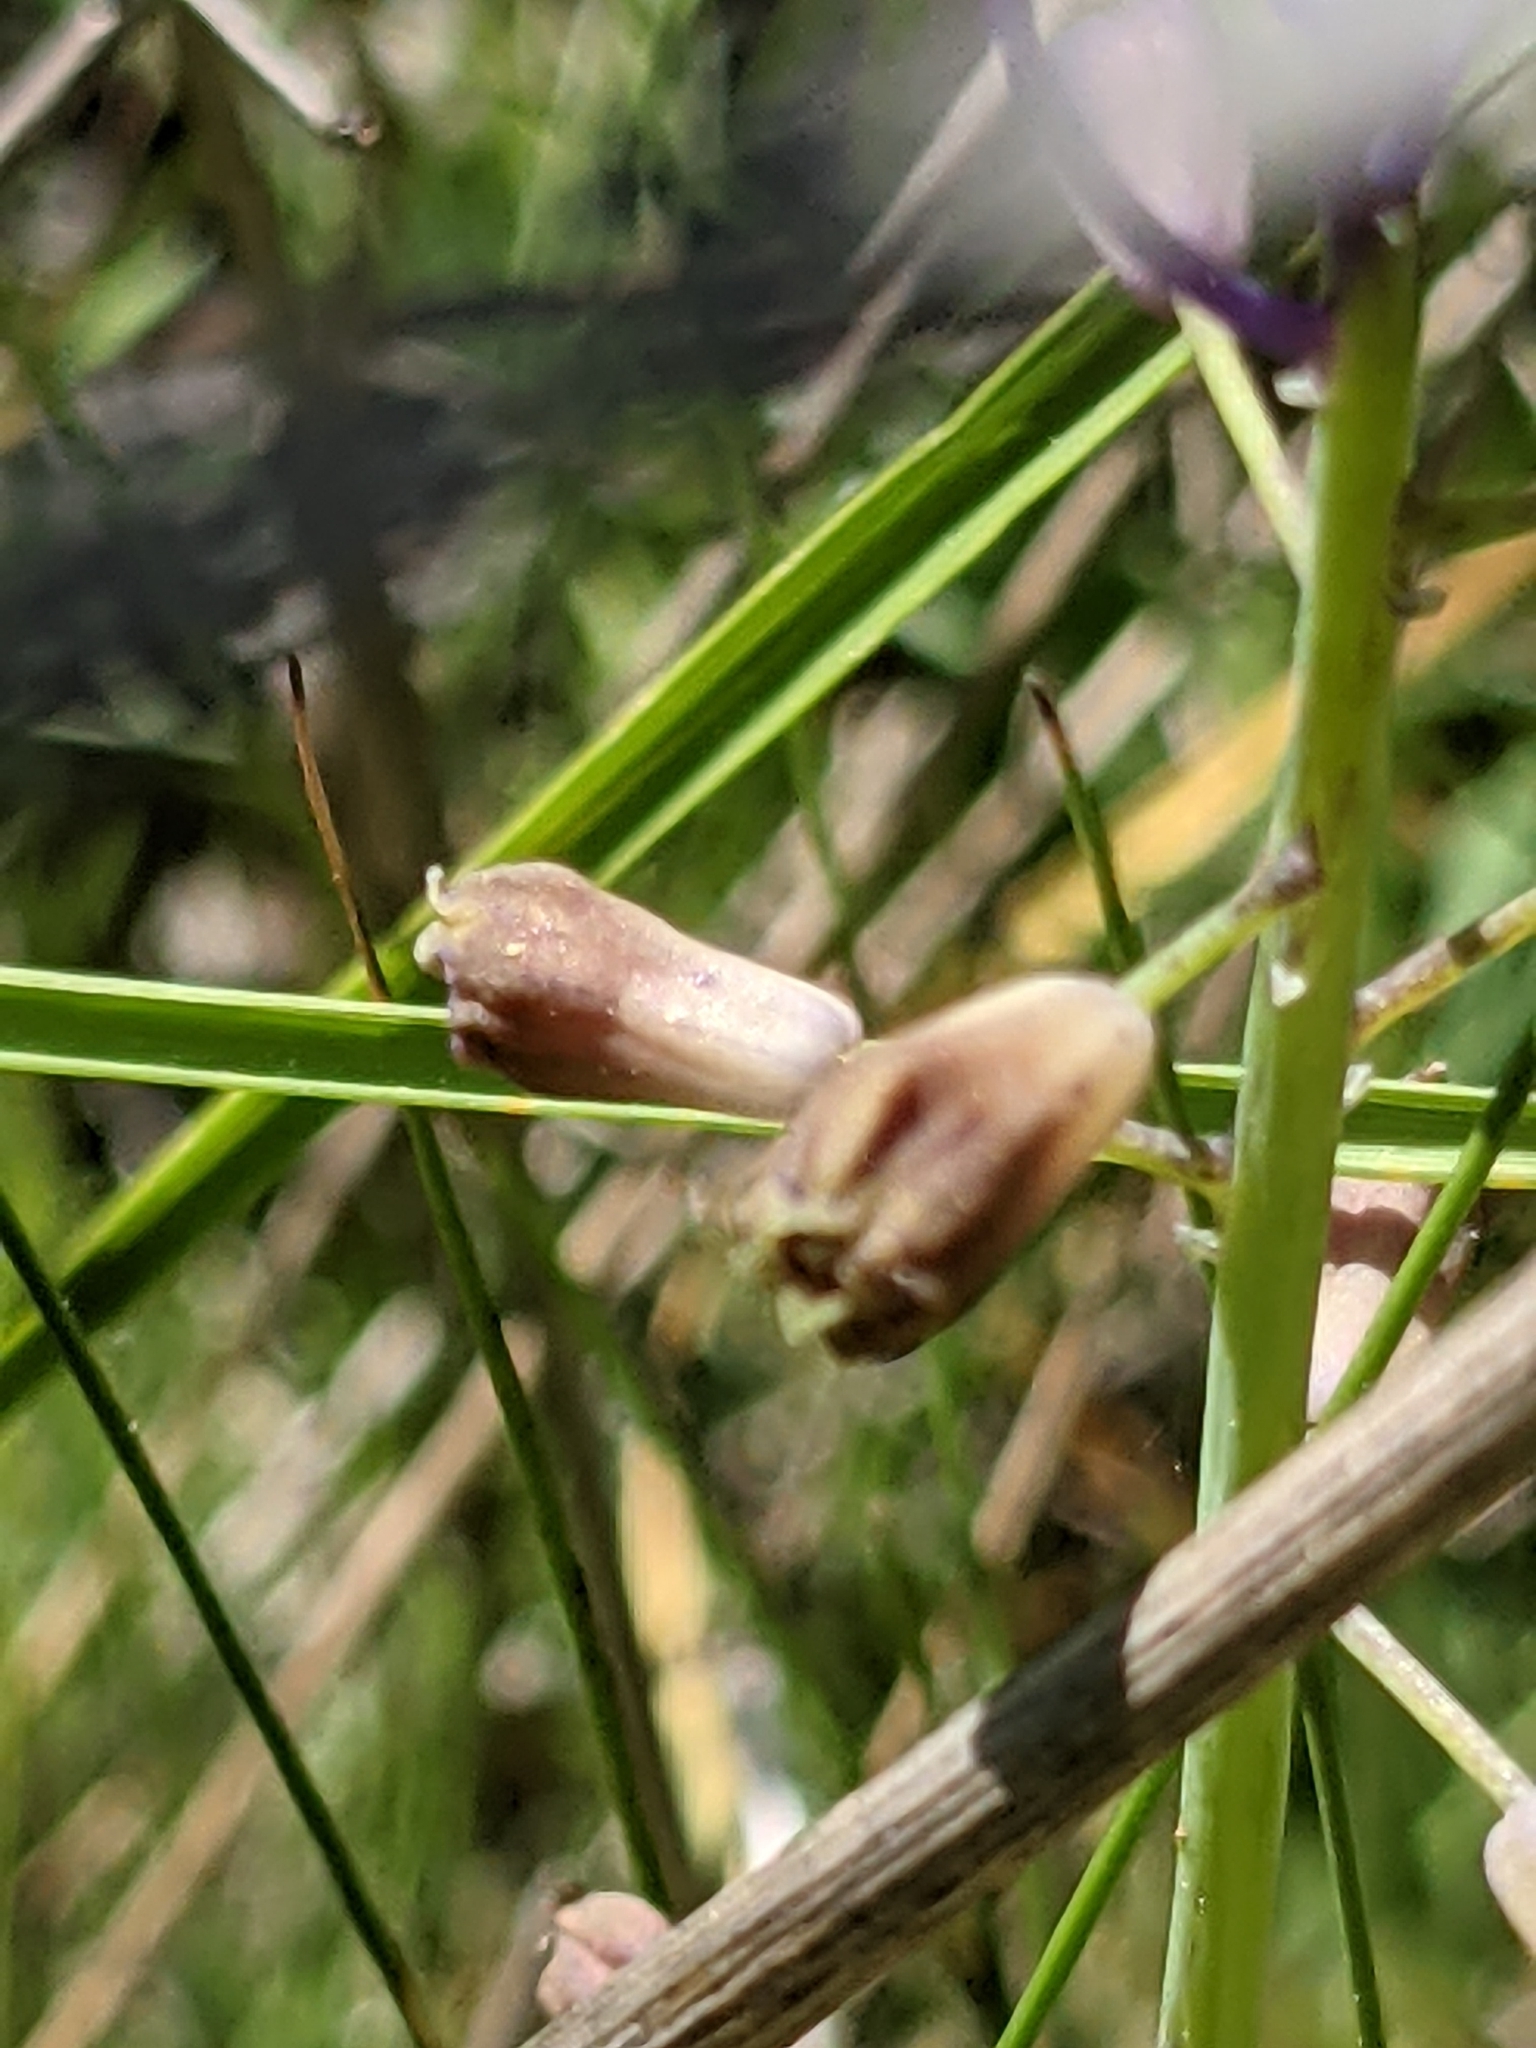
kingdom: Plantae
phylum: Tracheophyta
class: Liliopsida
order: Asparagales
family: Asparagaceae
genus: Muscari
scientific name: Muscari comosum
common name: Tassel hyacinth
